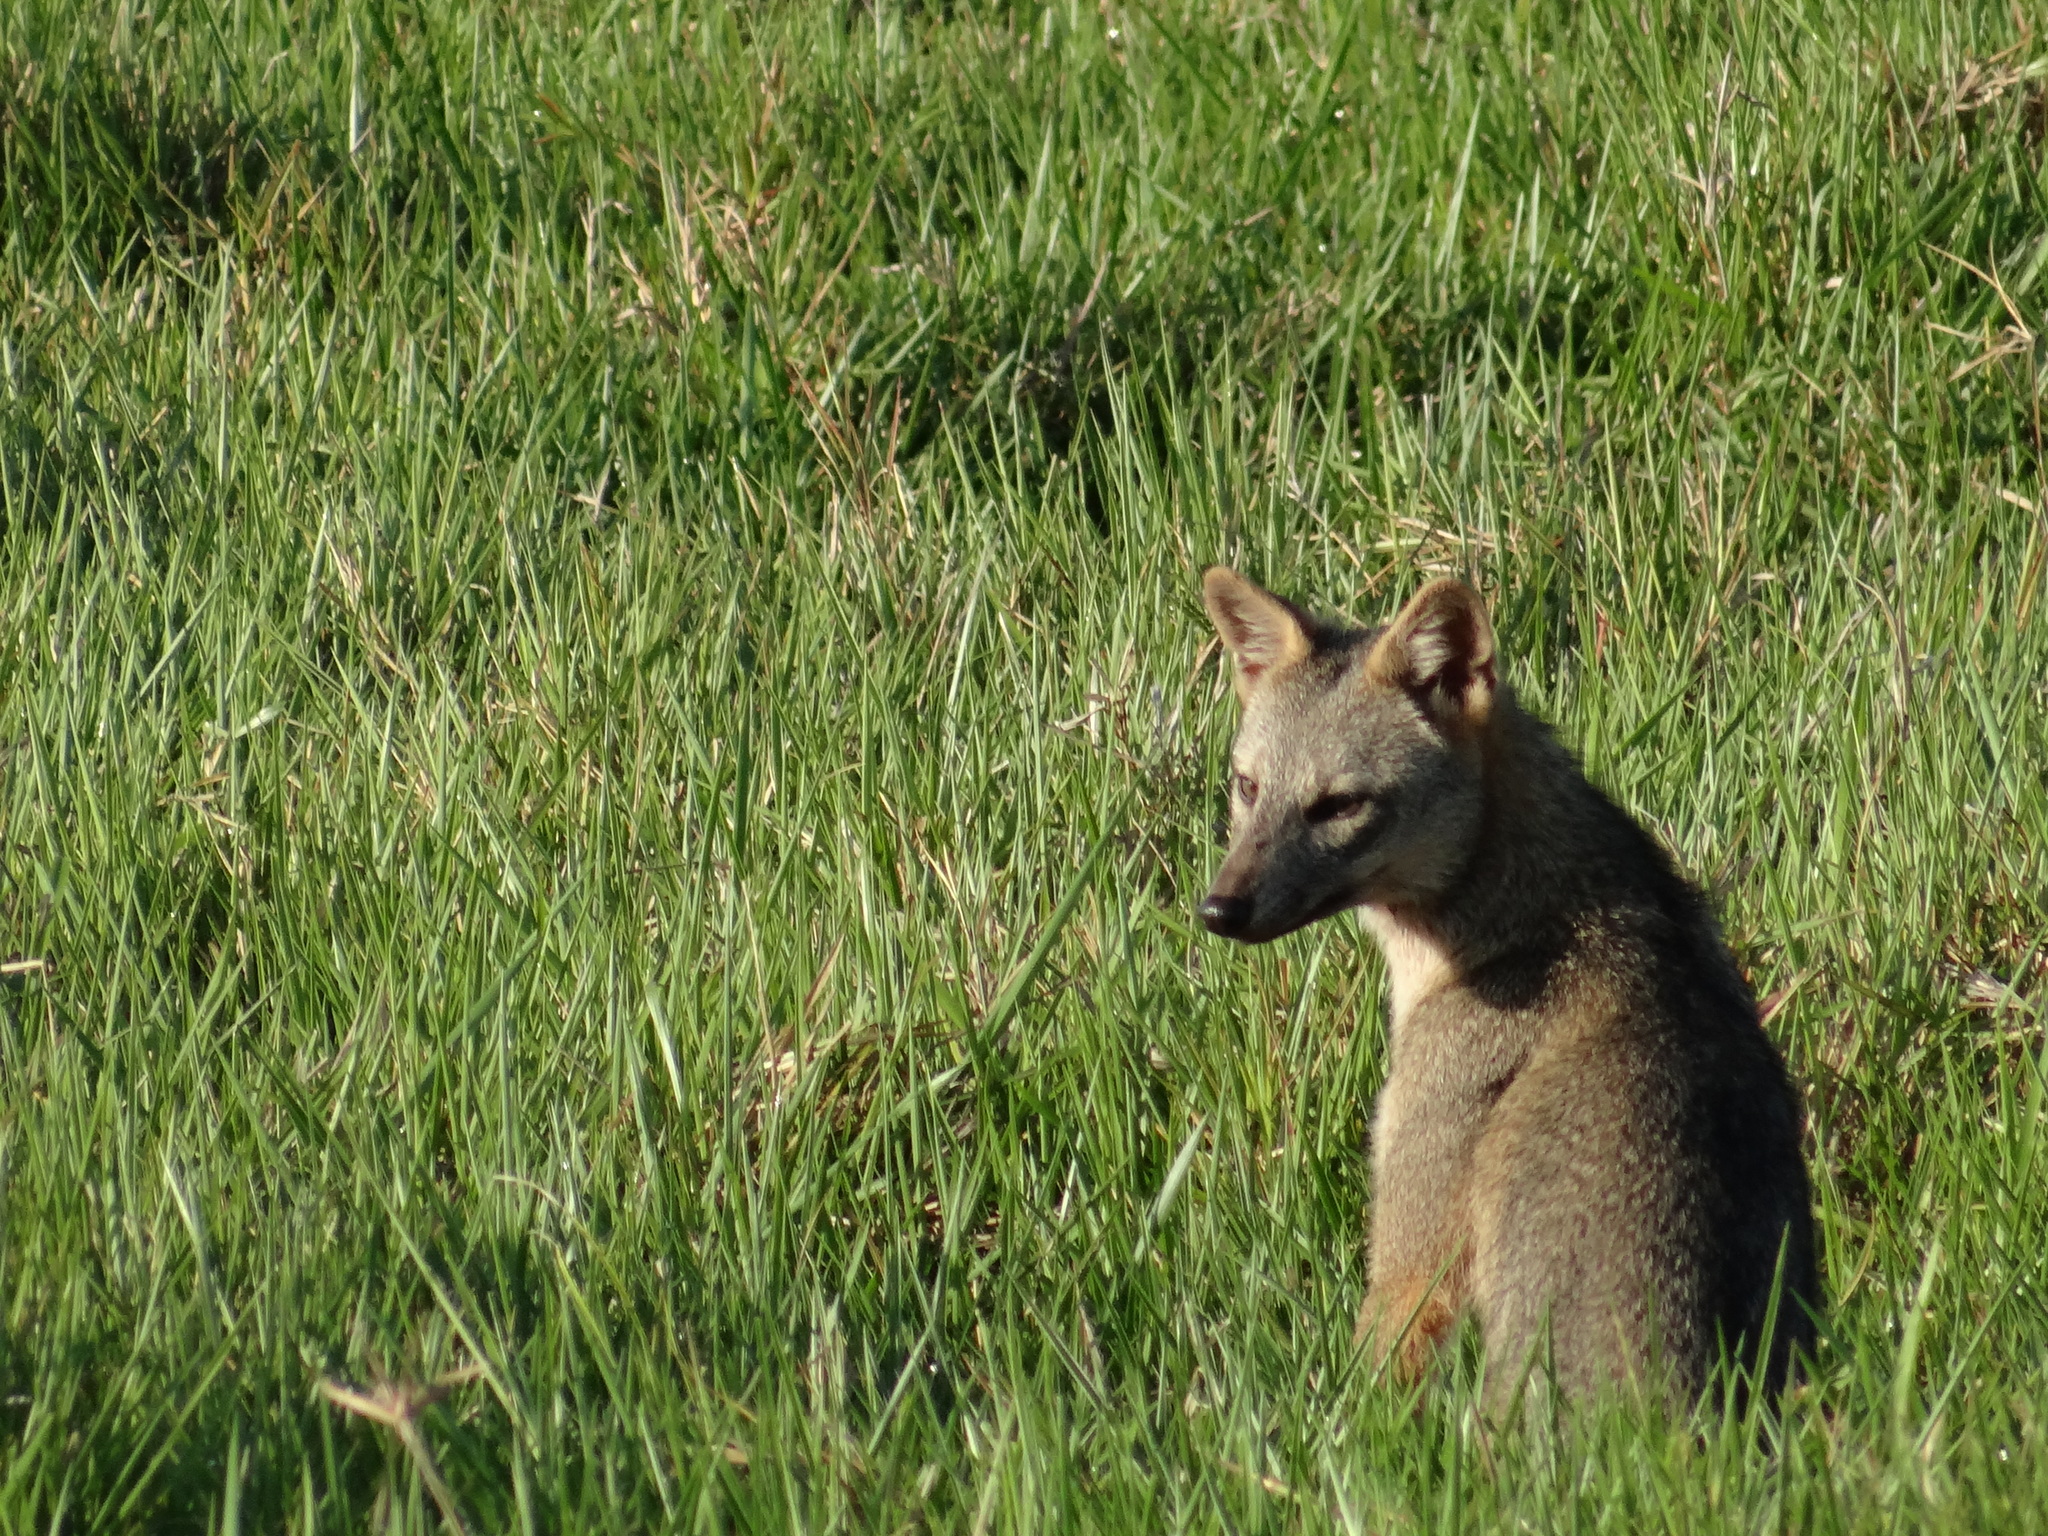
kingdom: Animalia
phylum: Chordata
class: Mammalia
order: Carnivora
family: Canidae
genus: Cerdocyon
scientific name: Cerdocyon thous
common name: Crab-eating fox
